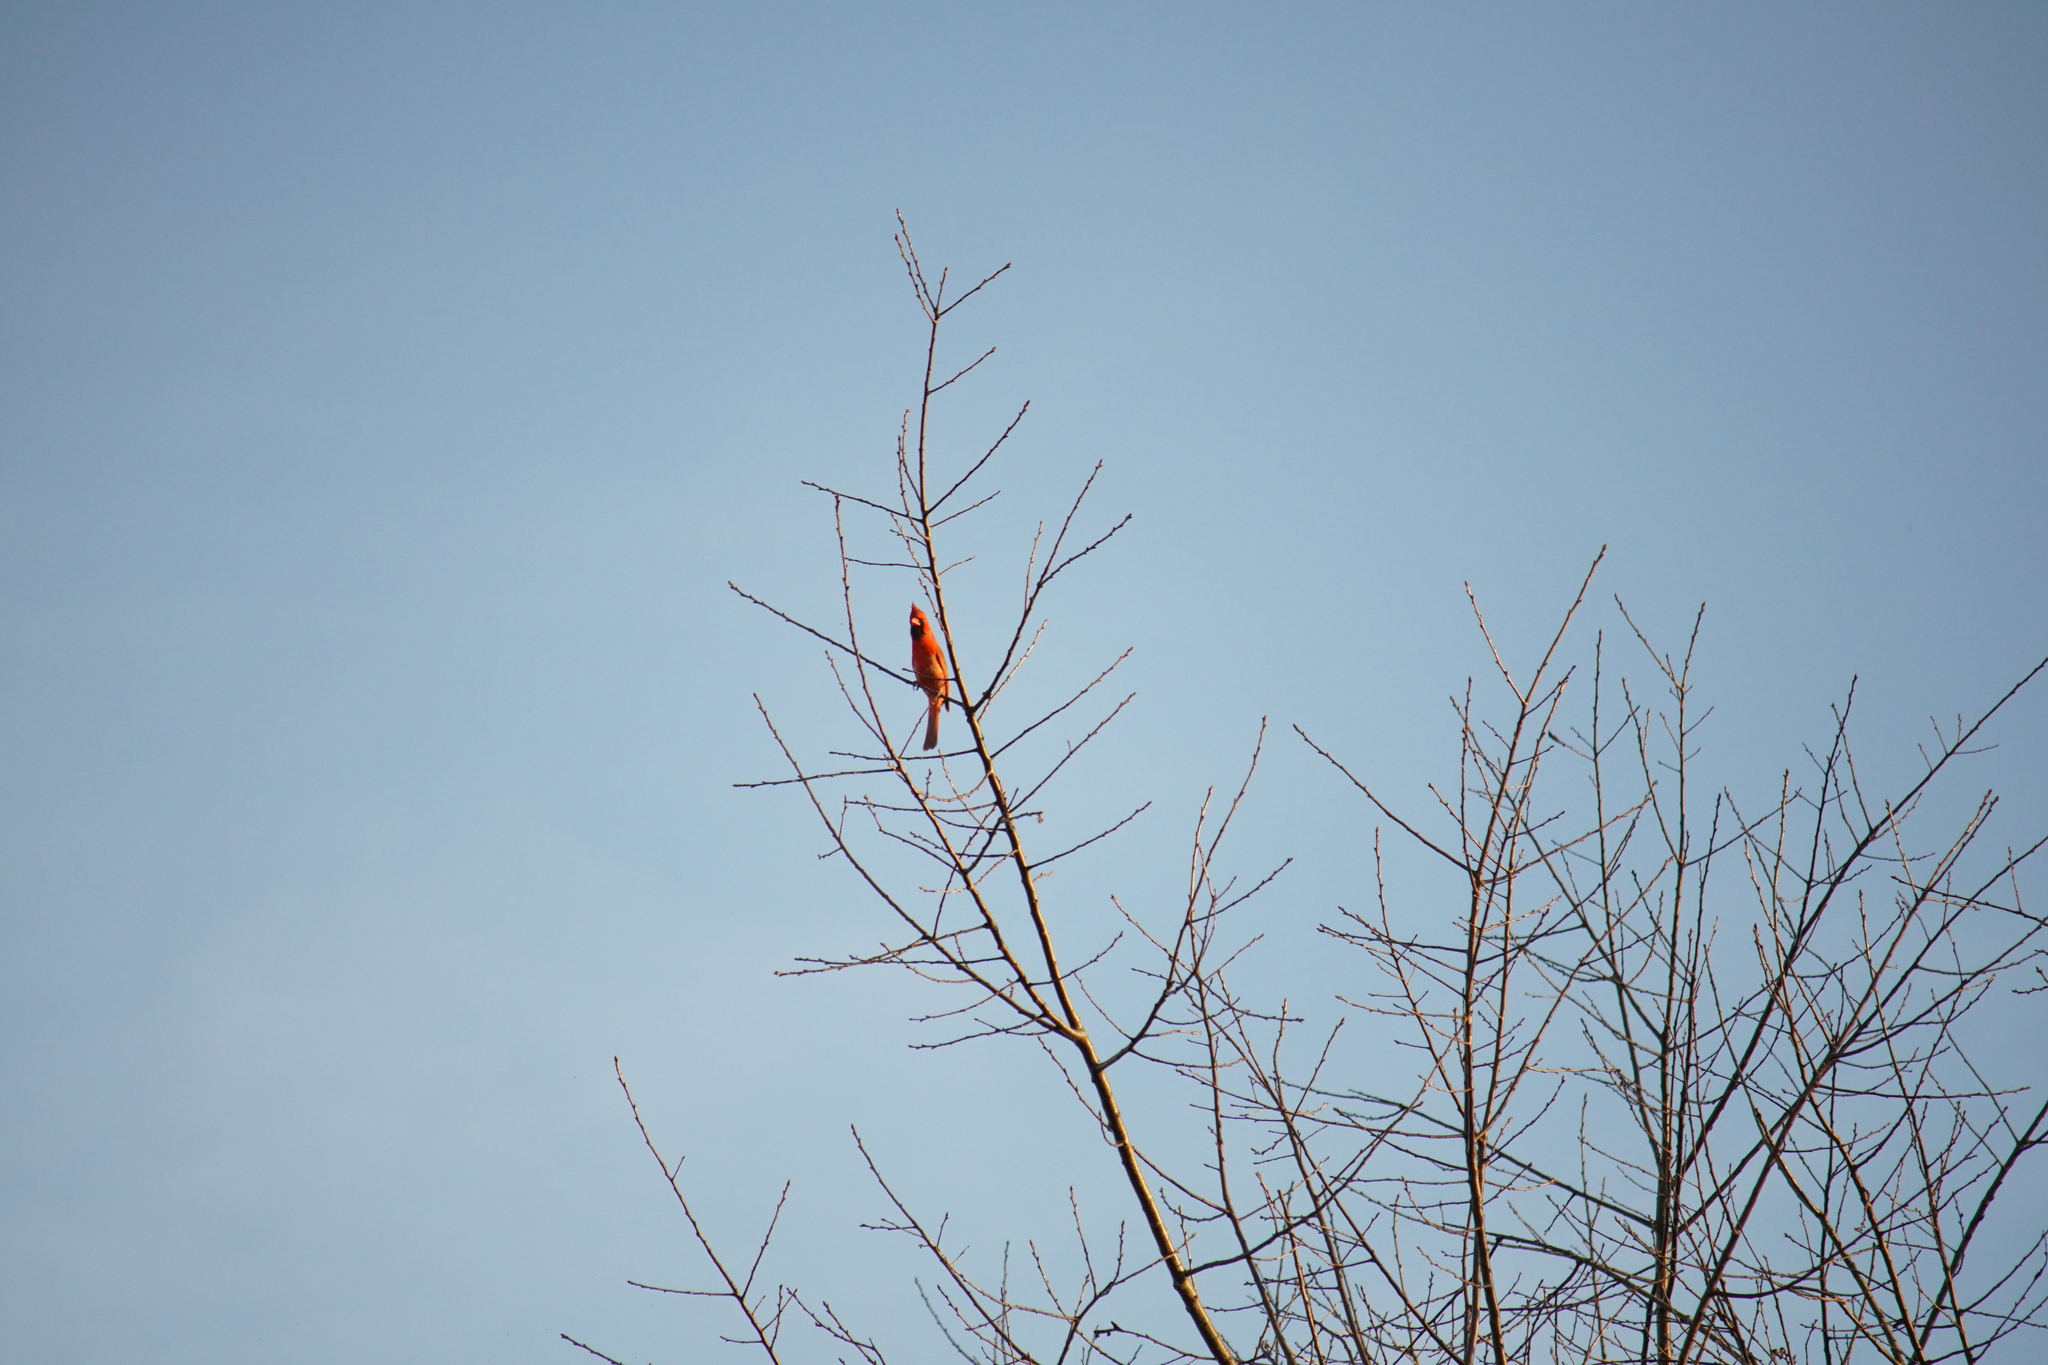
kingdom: Animalia
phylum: Chordata
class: Aves
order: Passeriformes
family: Cardinalidae
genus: Cardinalis
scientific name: Cardinalis cardinalis
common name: Northern cardinal
